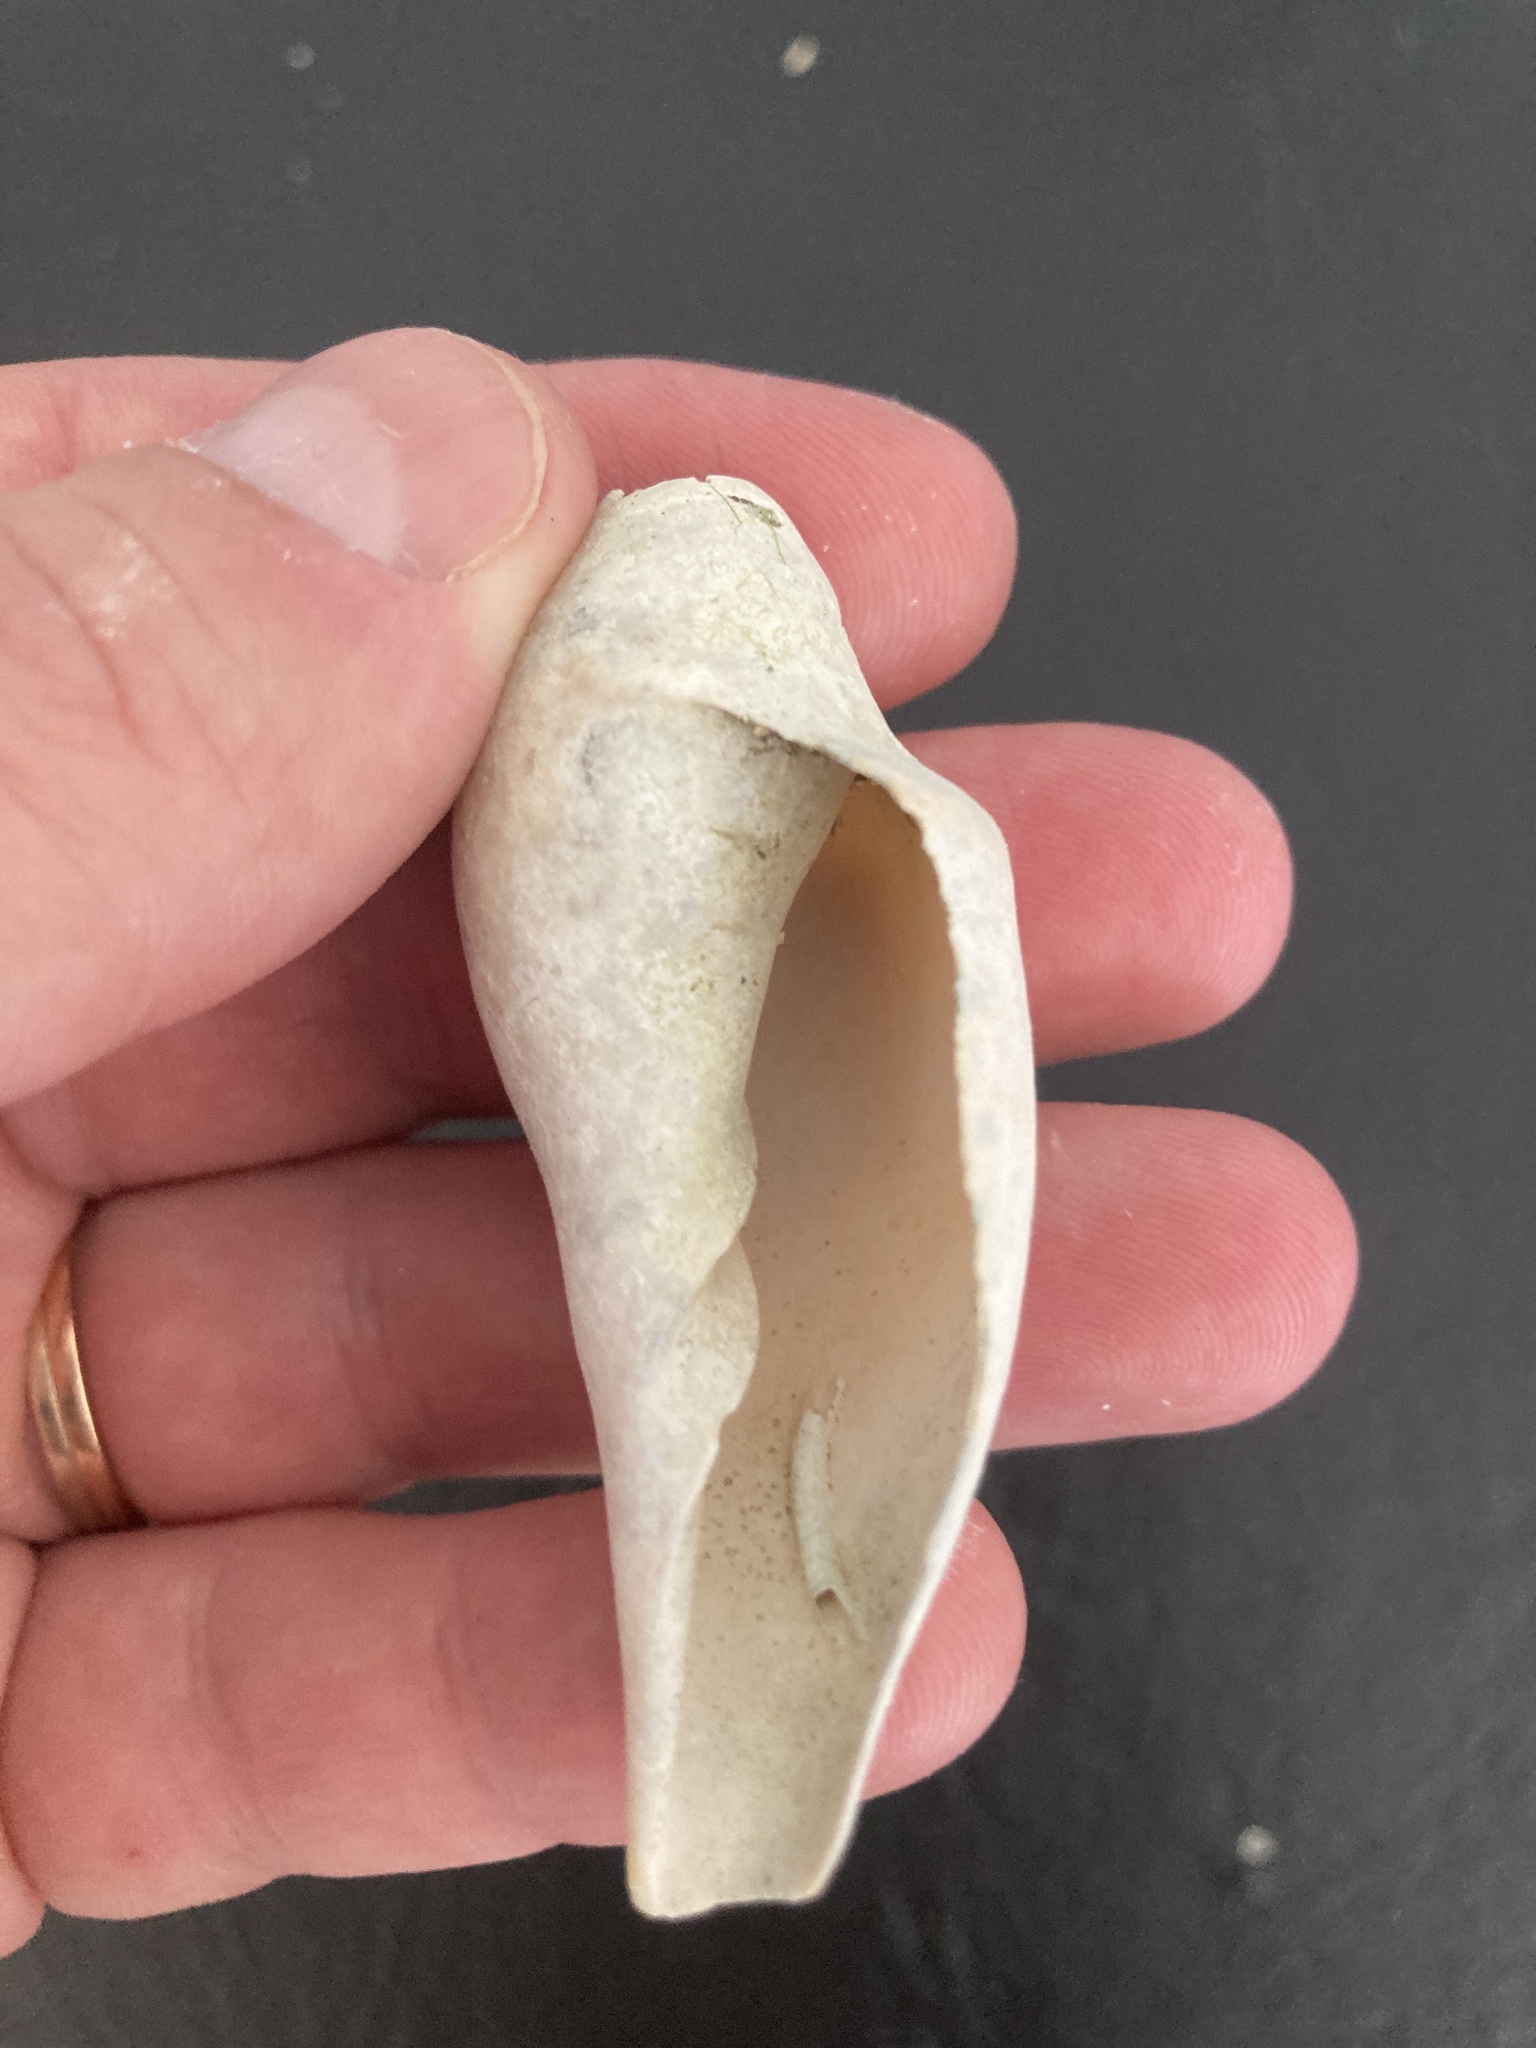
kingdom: Animalia
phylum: Mollusca
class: Gastropoda
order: Neogastropoda
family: Volutidae
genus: Zidona
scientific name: Zidona dufresnii
